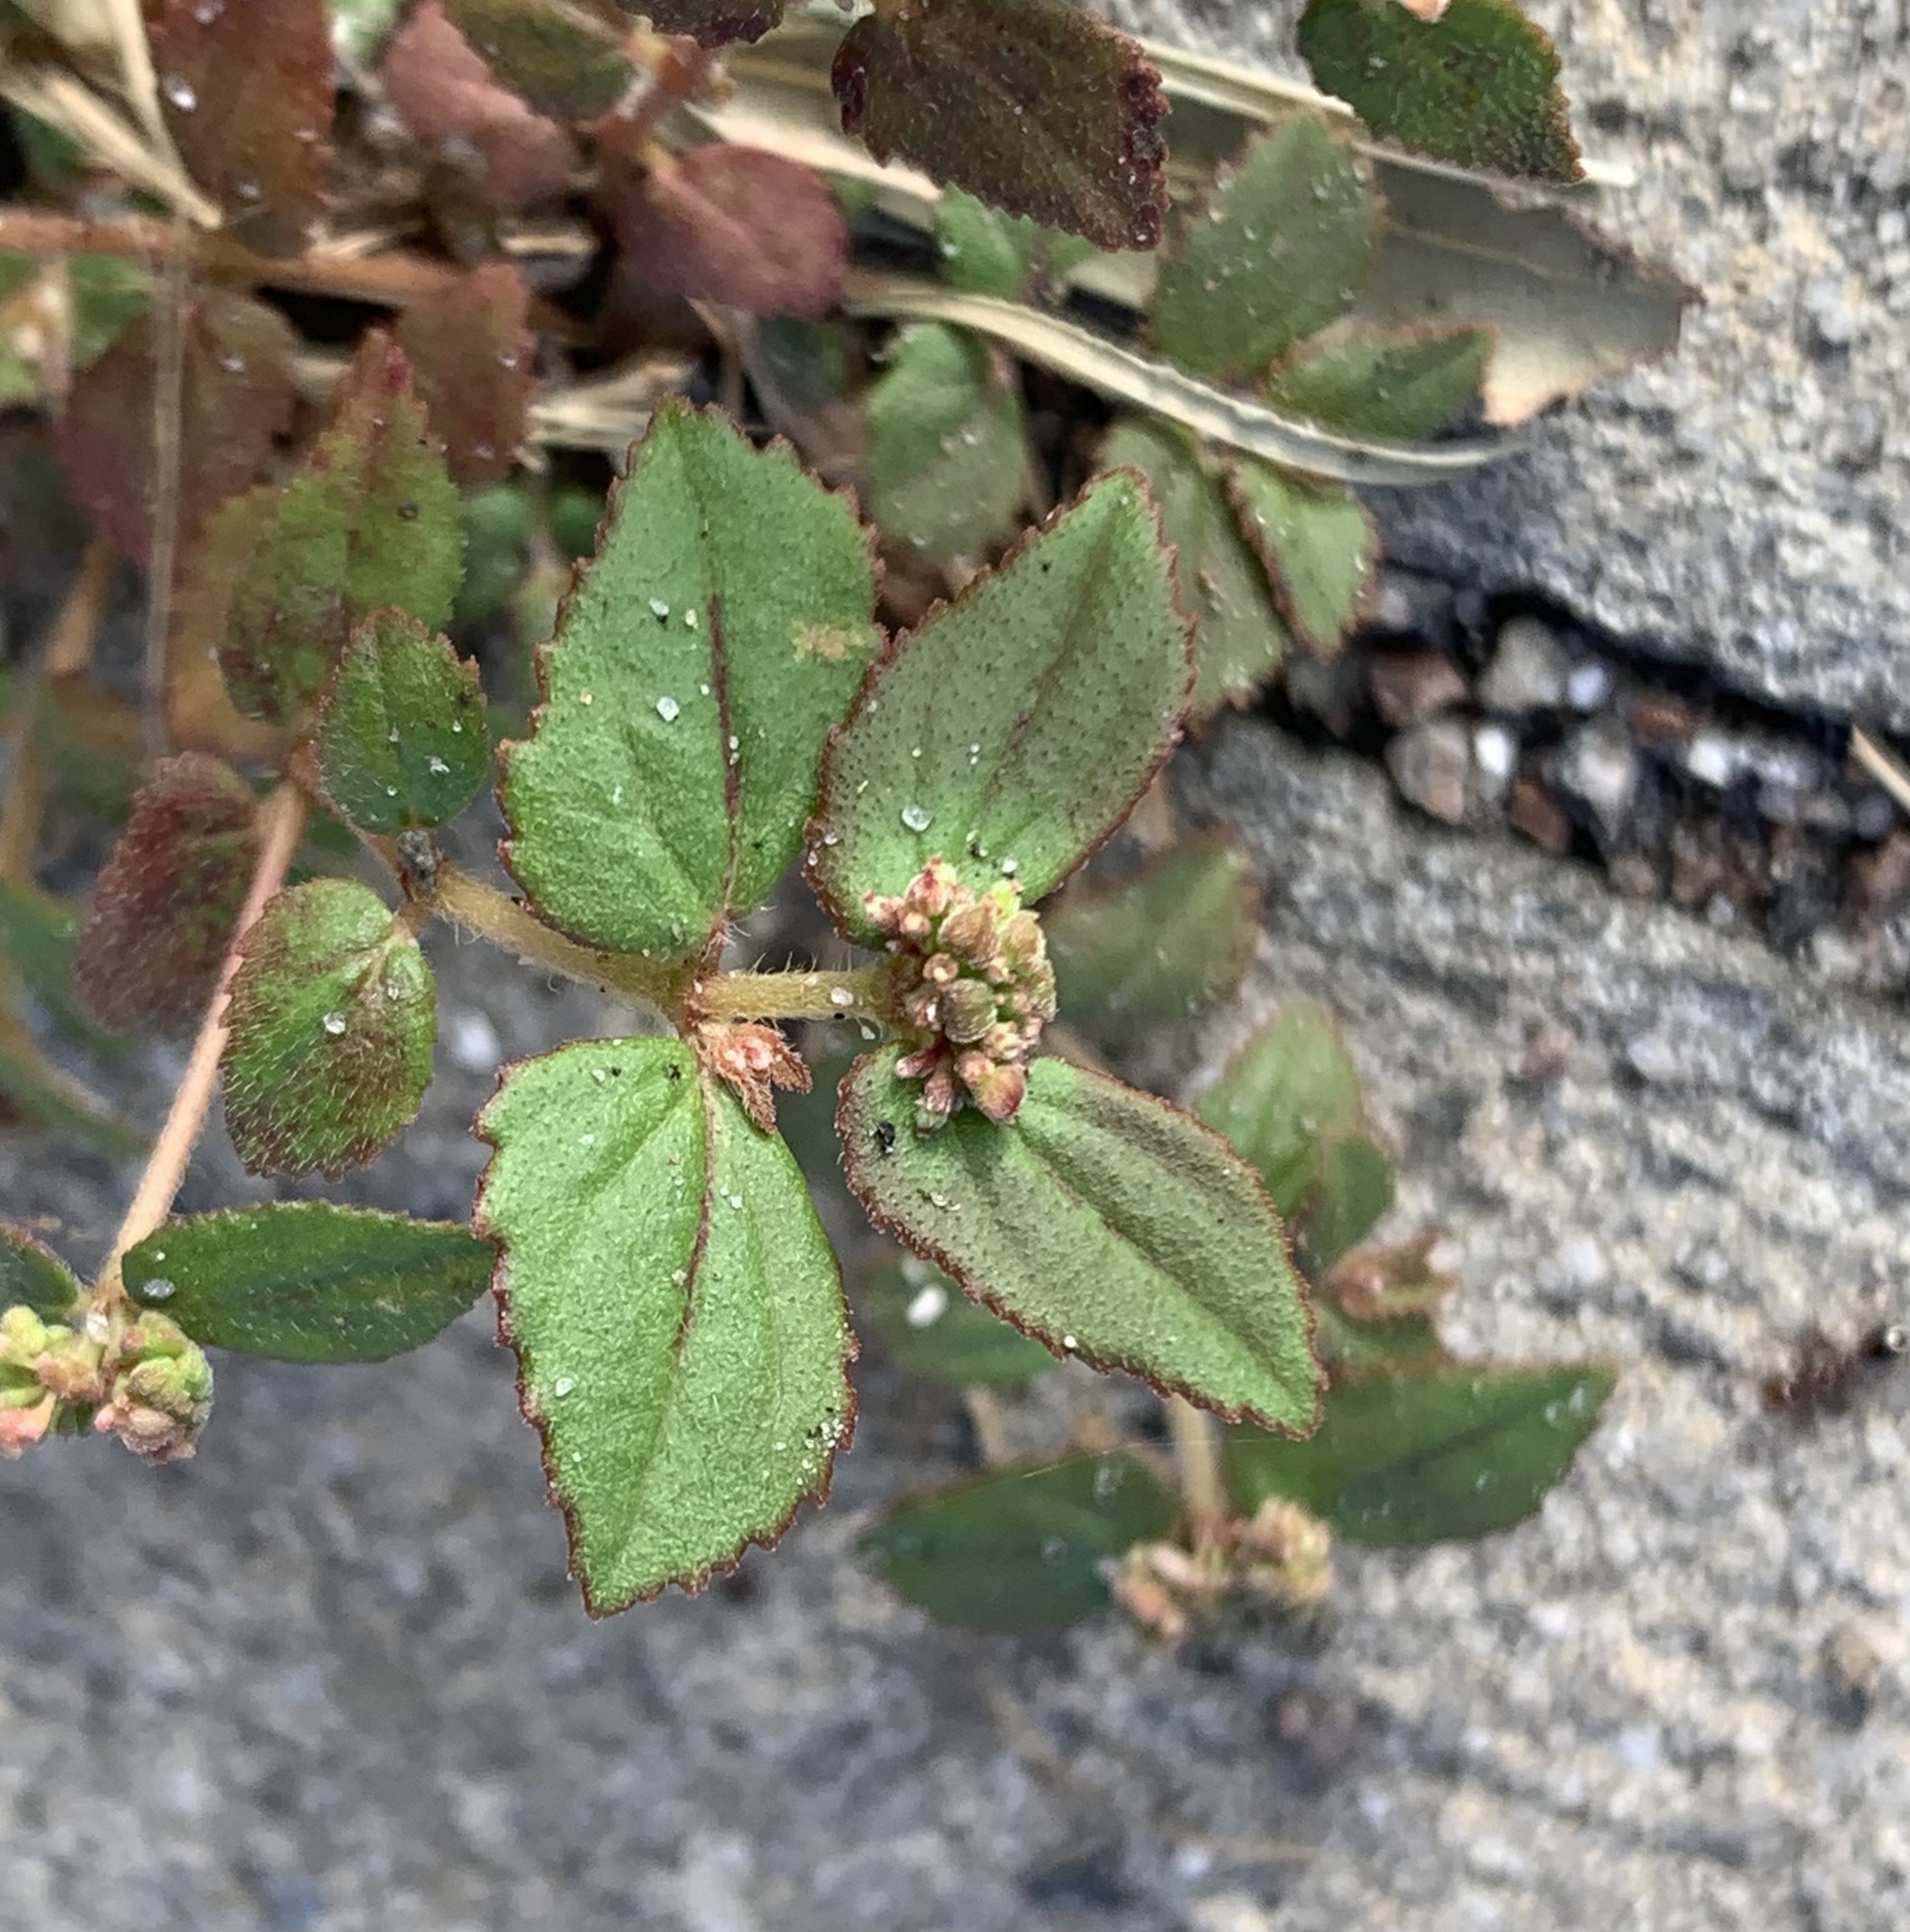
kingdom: Plantae
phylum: Tracheophyta
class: Magnoliopsida
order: Malpighiales
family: Euphorbiaceae
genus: Euphorbia
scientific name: Euphorbia ophthalmica
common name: Florida hammock sandmat
